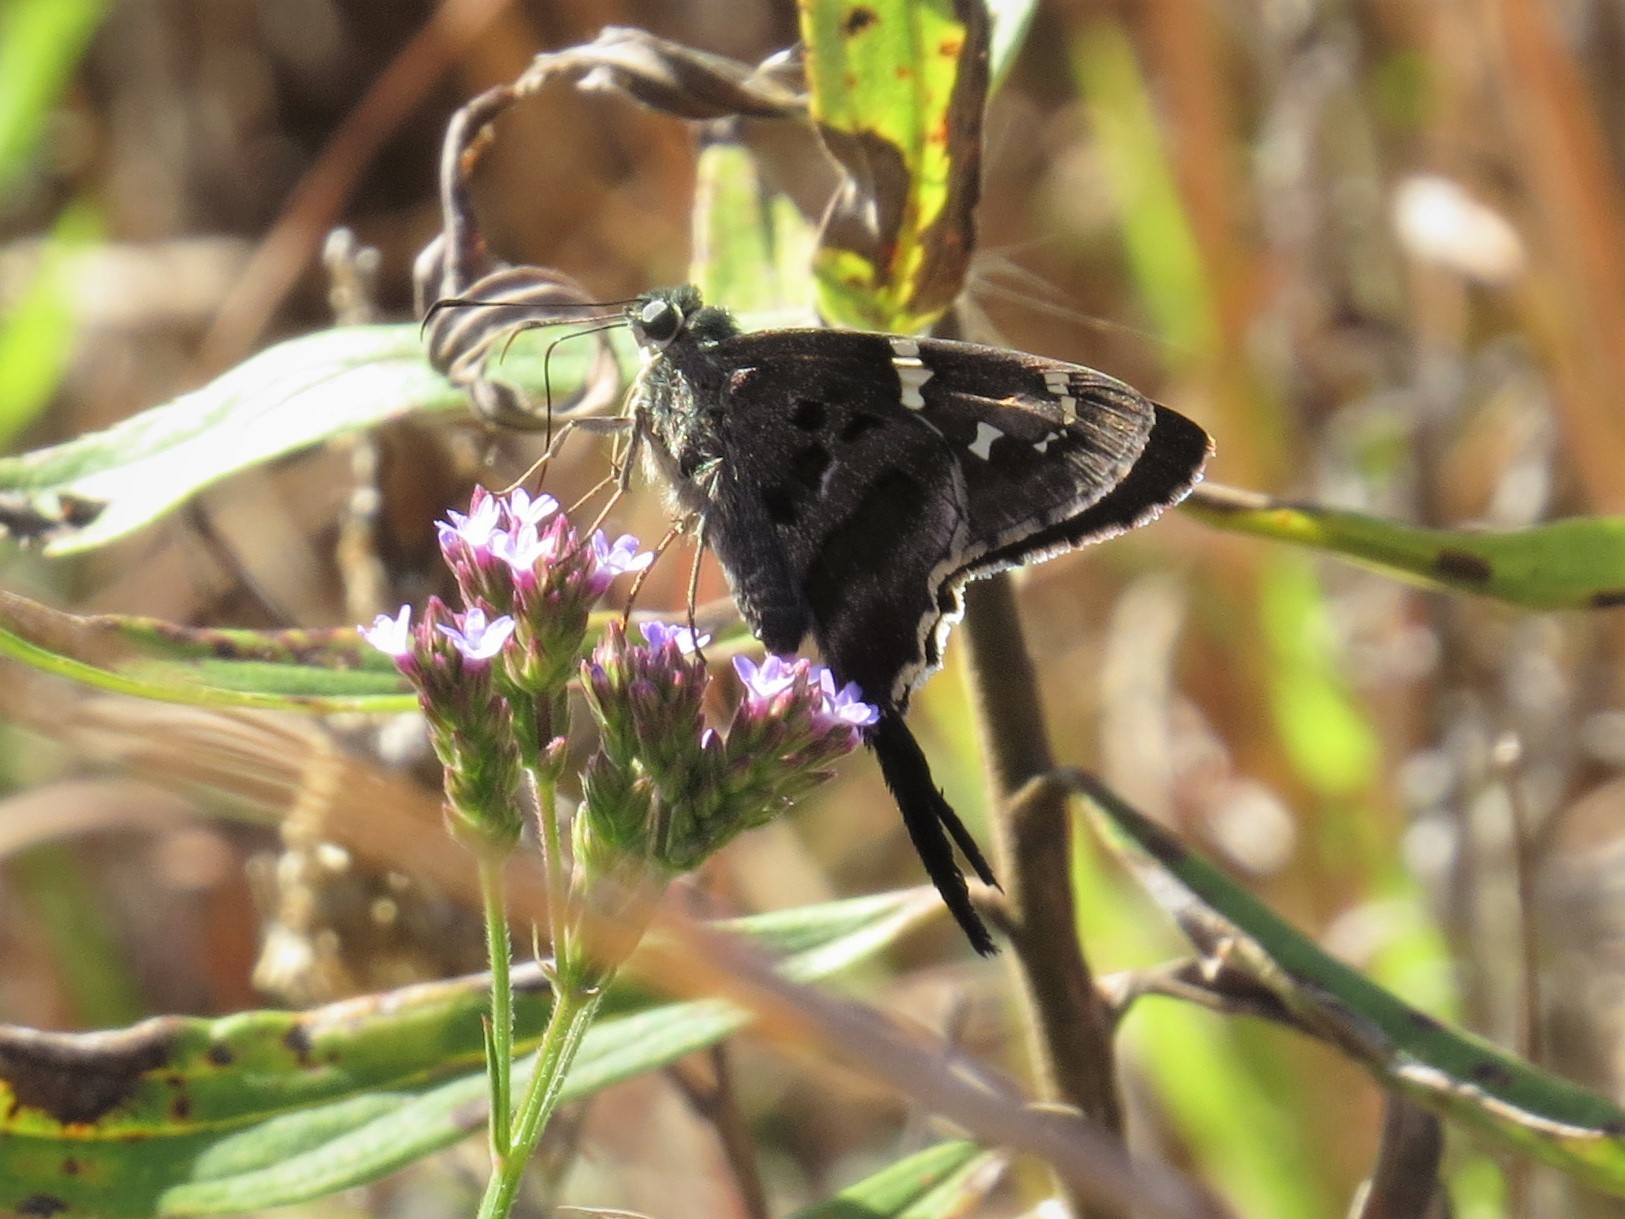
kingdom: Animalia
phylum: Arthropoda
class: Insecta
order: Lepidoptera
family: Hesperiidae
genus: Urbanus
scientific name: Urbanus proteus
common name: Long-tailed skipper
